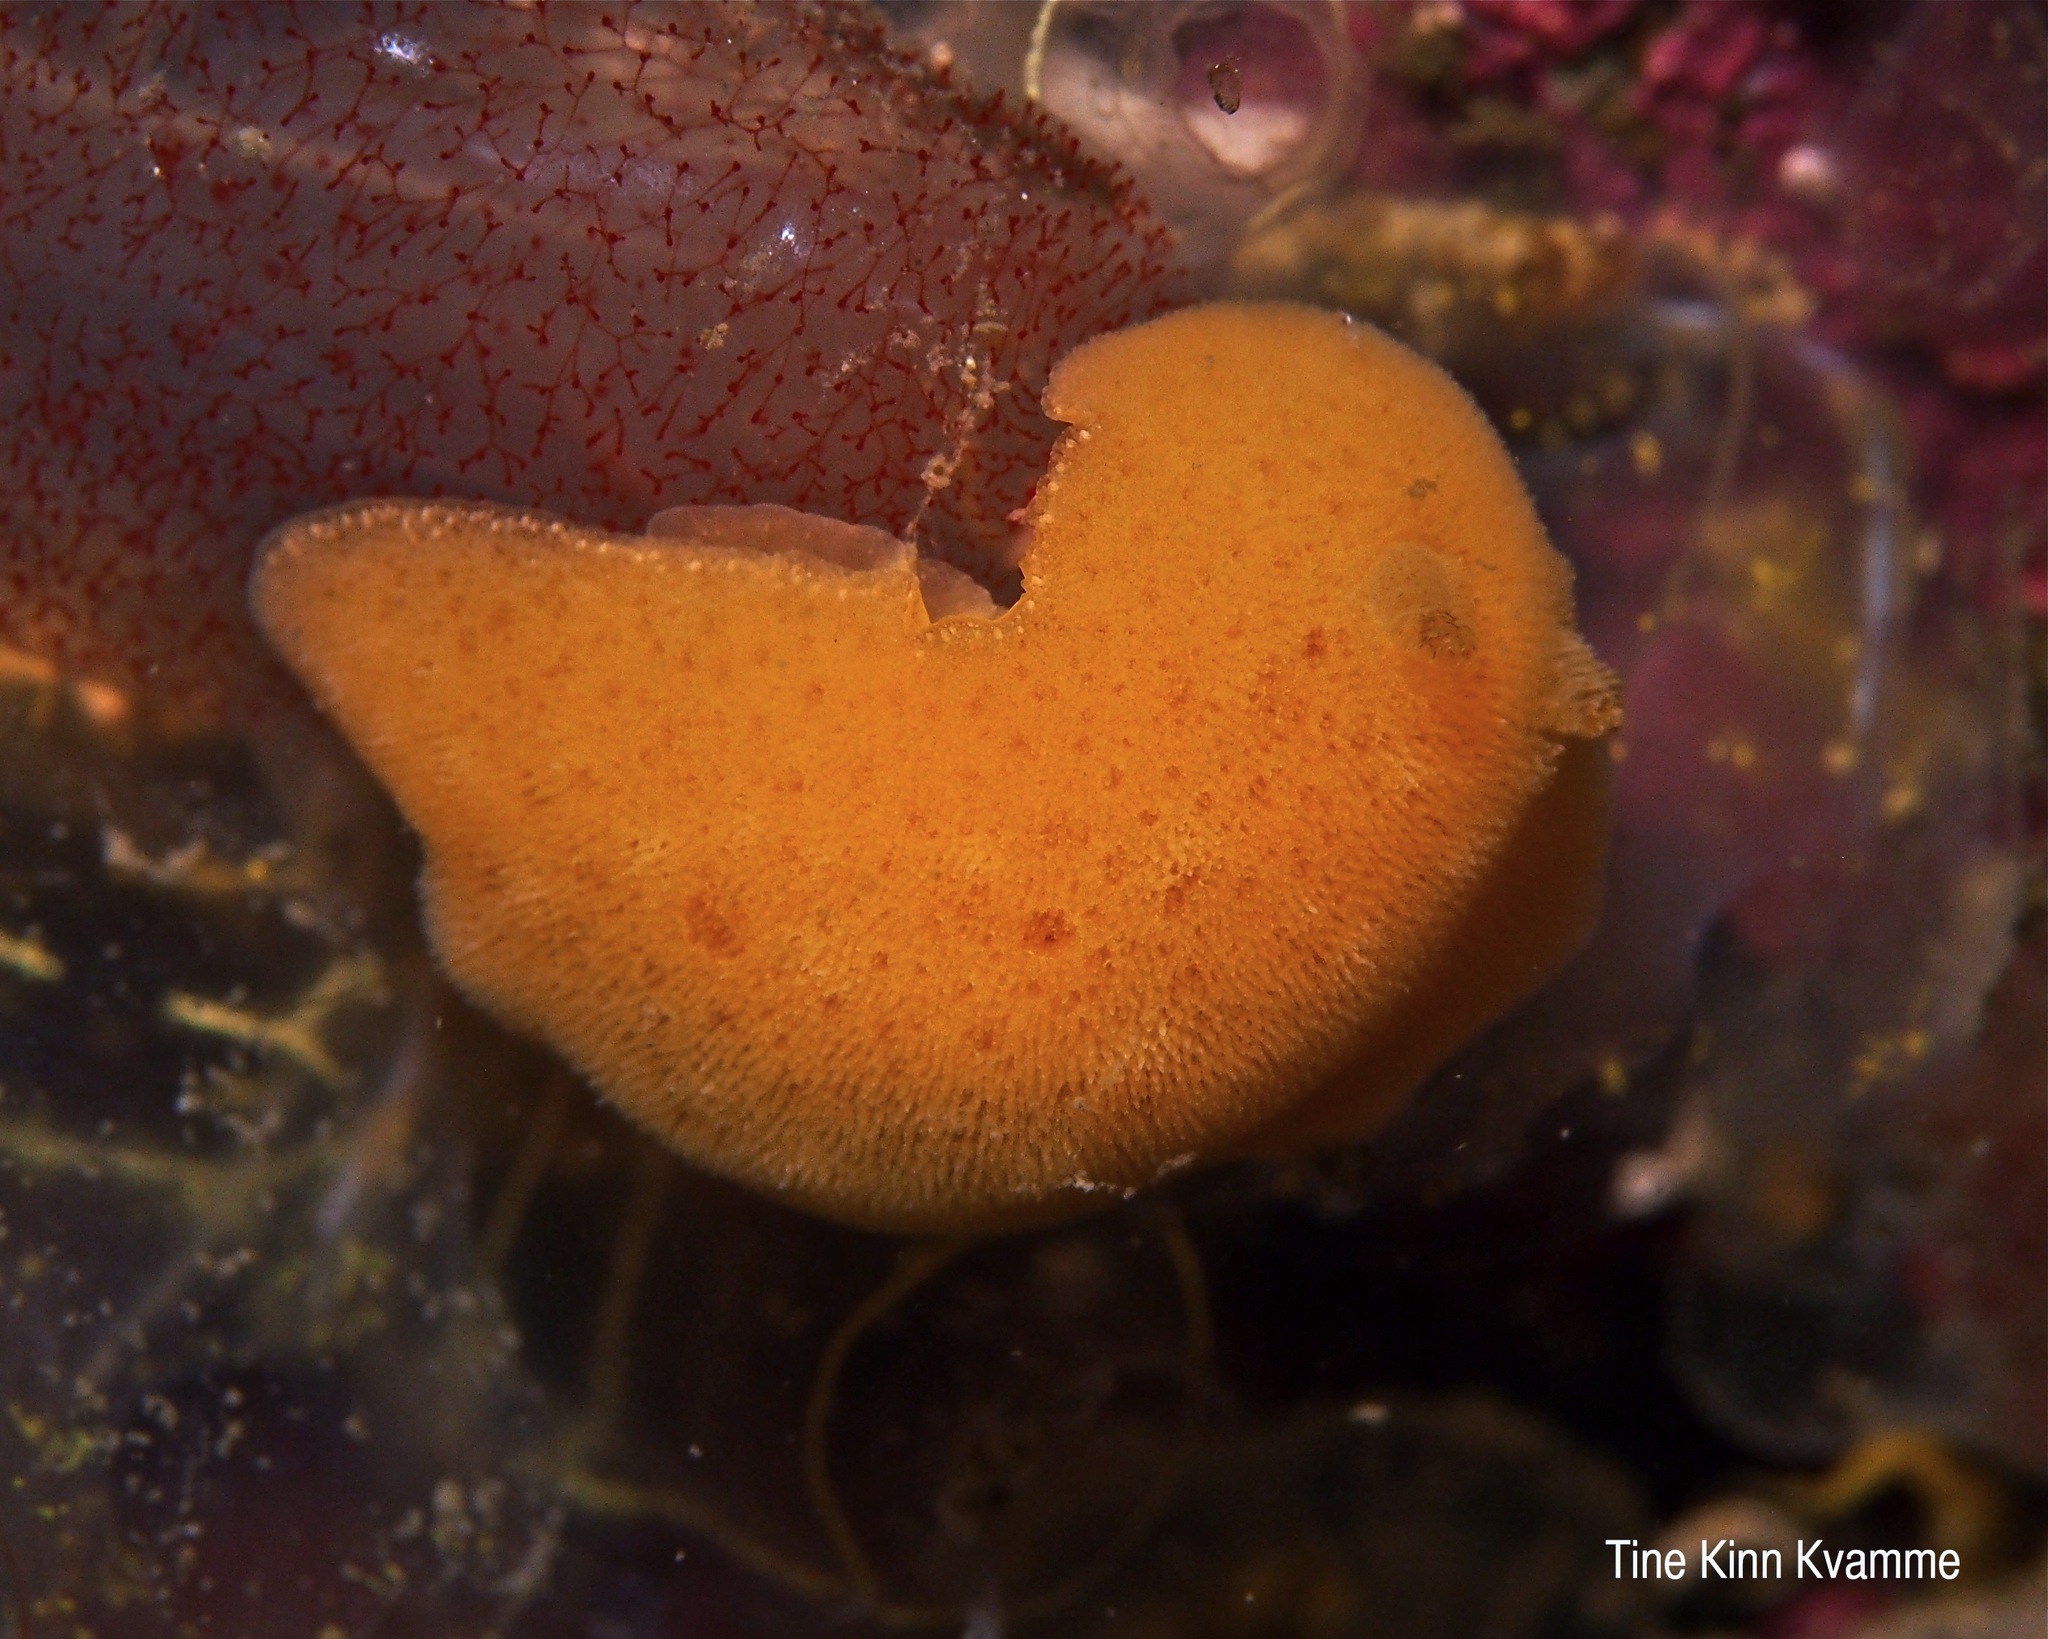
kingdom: Animalia
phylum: Mollusca
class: Gastropoda
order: Nudibranchia
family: Discodorididae
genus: Jorunna
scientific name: Jorunna tomentosa
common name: Grey sea slug
